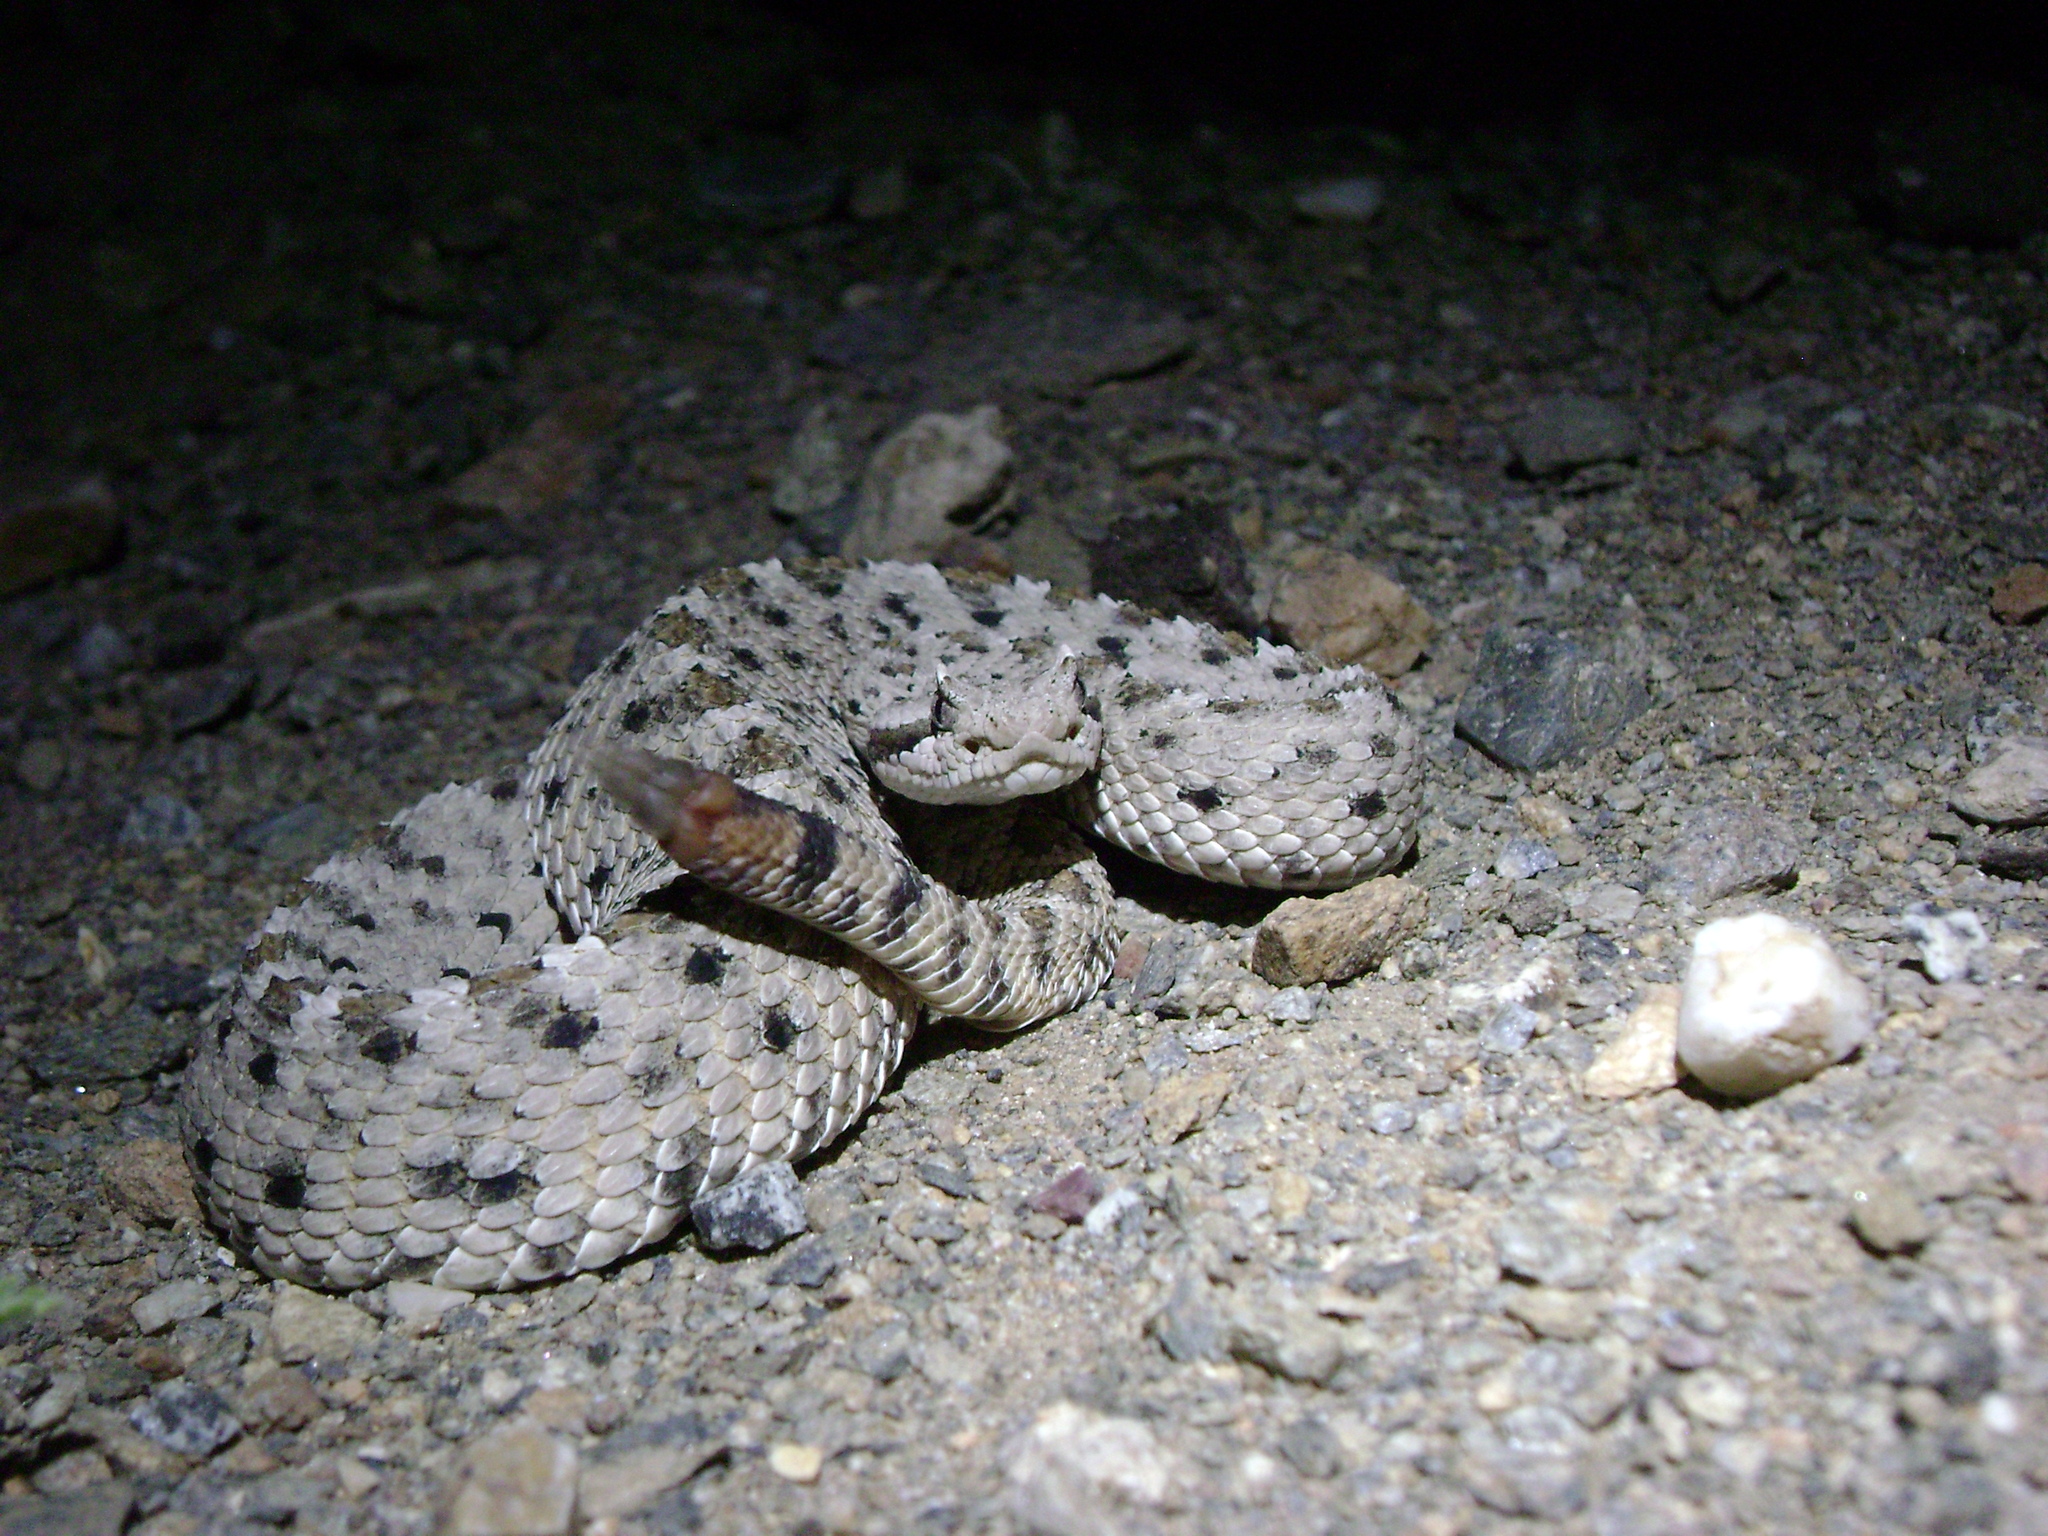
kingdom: Animalia
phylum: Chordata
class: Squamata
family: Viperidae
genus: Crotalus
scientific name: Crotalus cerastes
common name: Sidewinder
